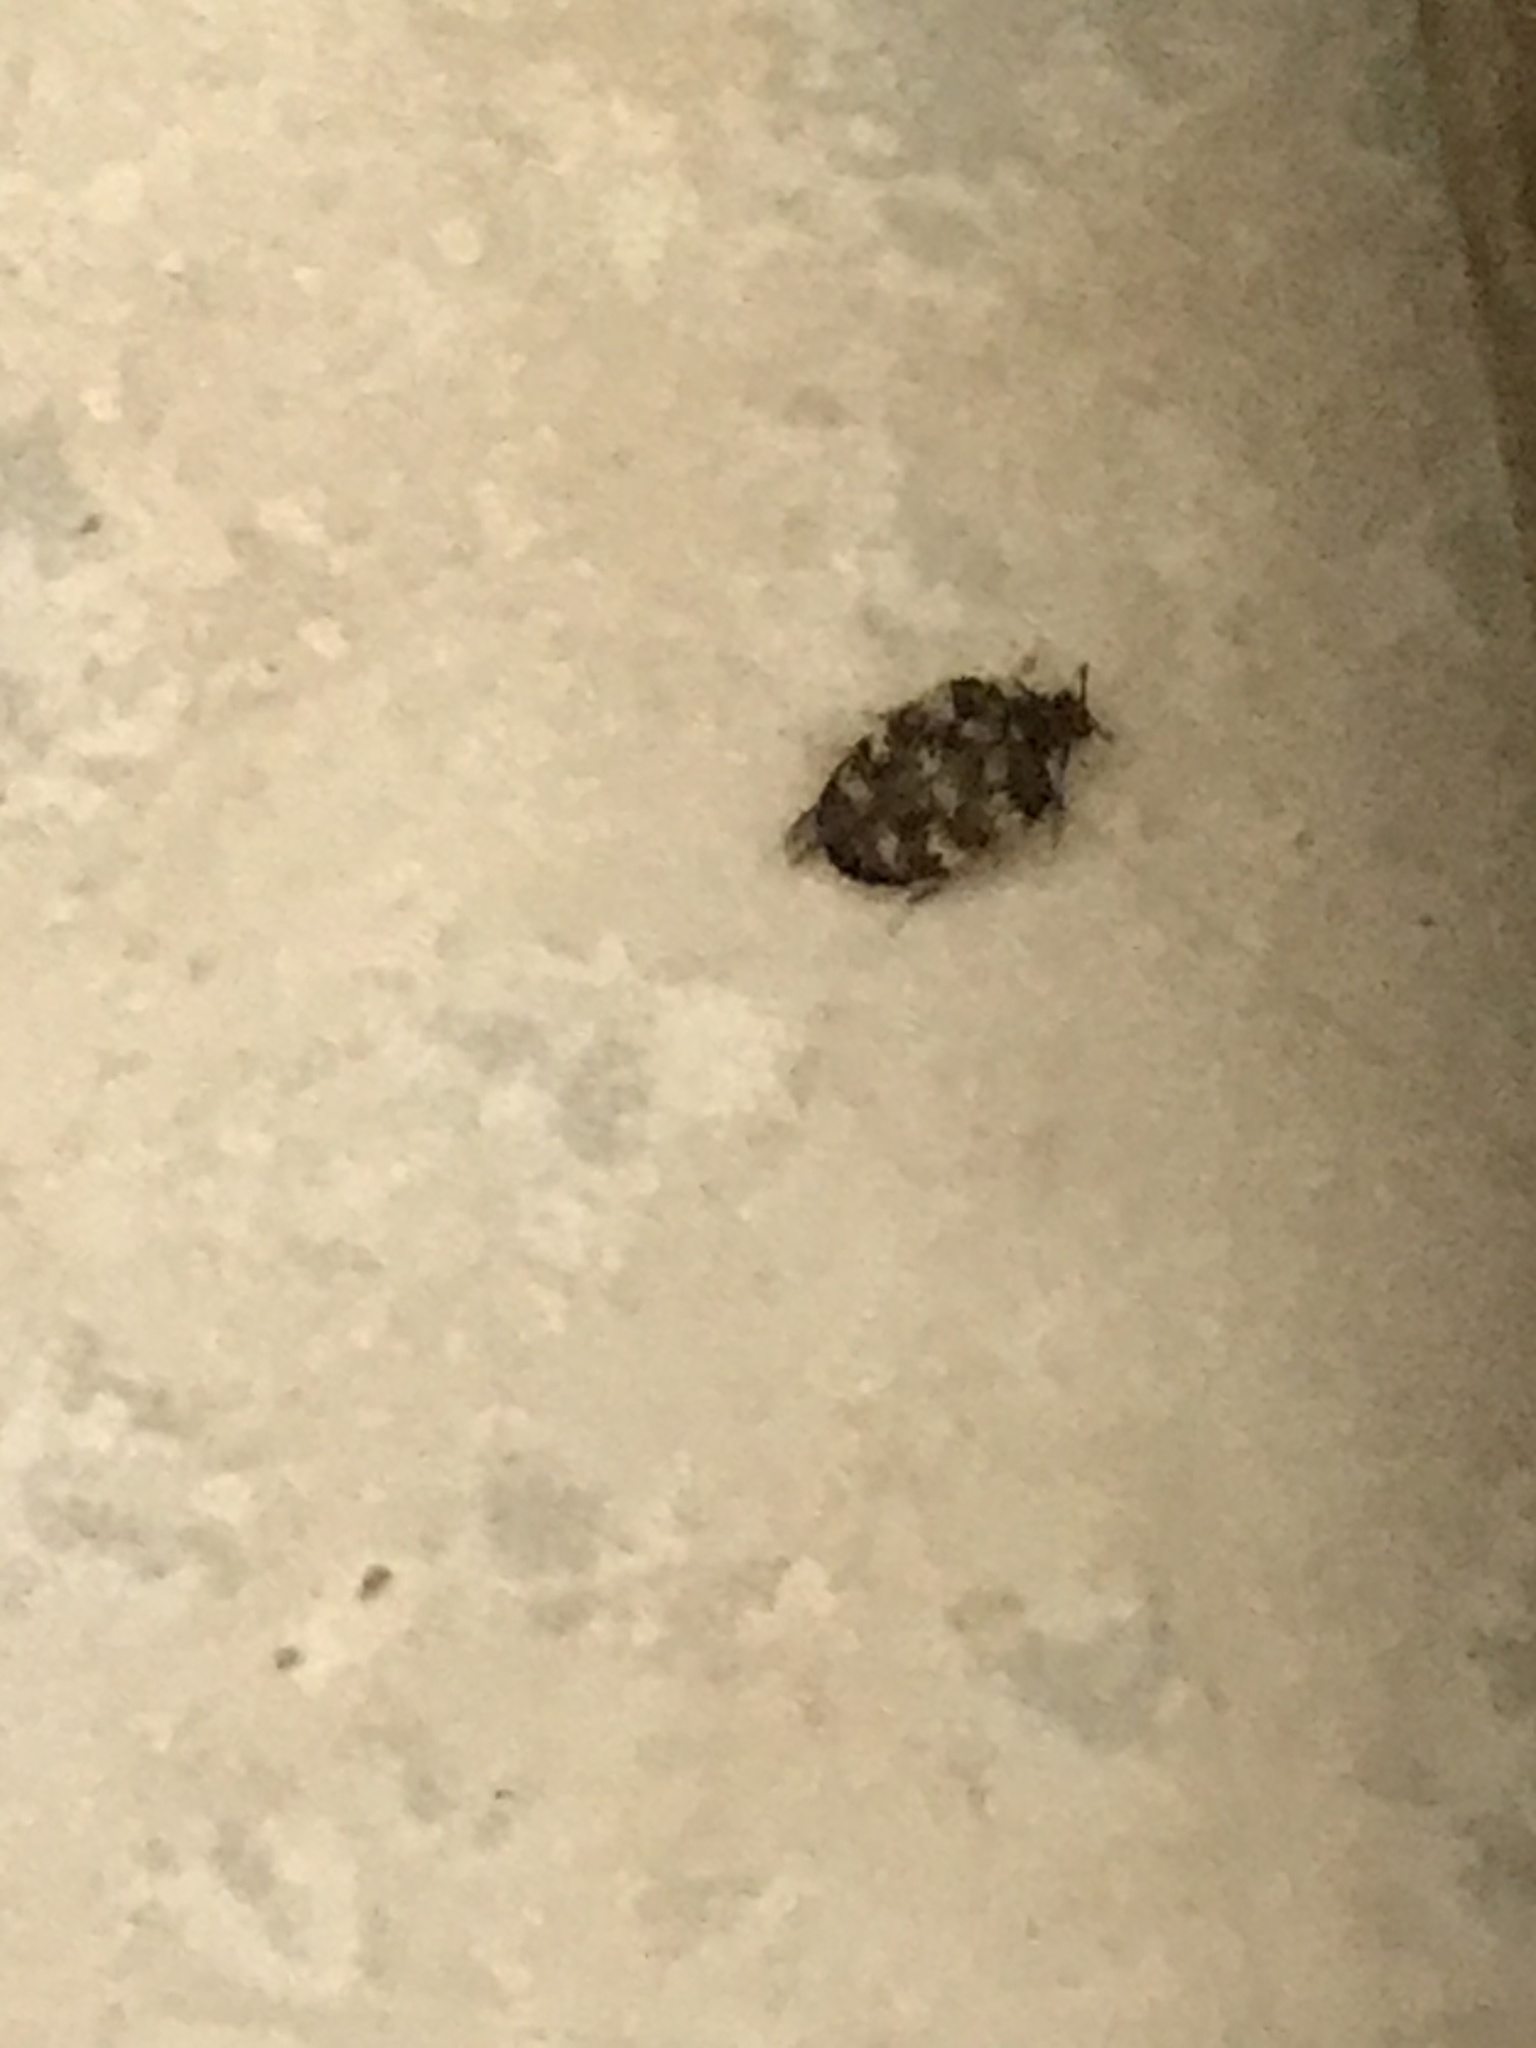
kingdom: Animalia
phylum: Arthropoda
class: Insecta
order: Coleoptera
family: Dermestidae
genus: Anthrenus
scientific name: Anthrenus verbasci
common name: Varied carpet beetle
